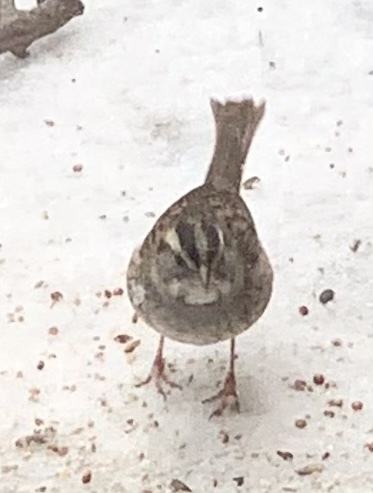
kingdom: Animalia
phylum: Chordata
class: Aves
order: Passeriformes
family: Passerellidae
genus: Zonotrichia
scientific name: Zonotrichia albicollis
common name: White-throated sparrow
